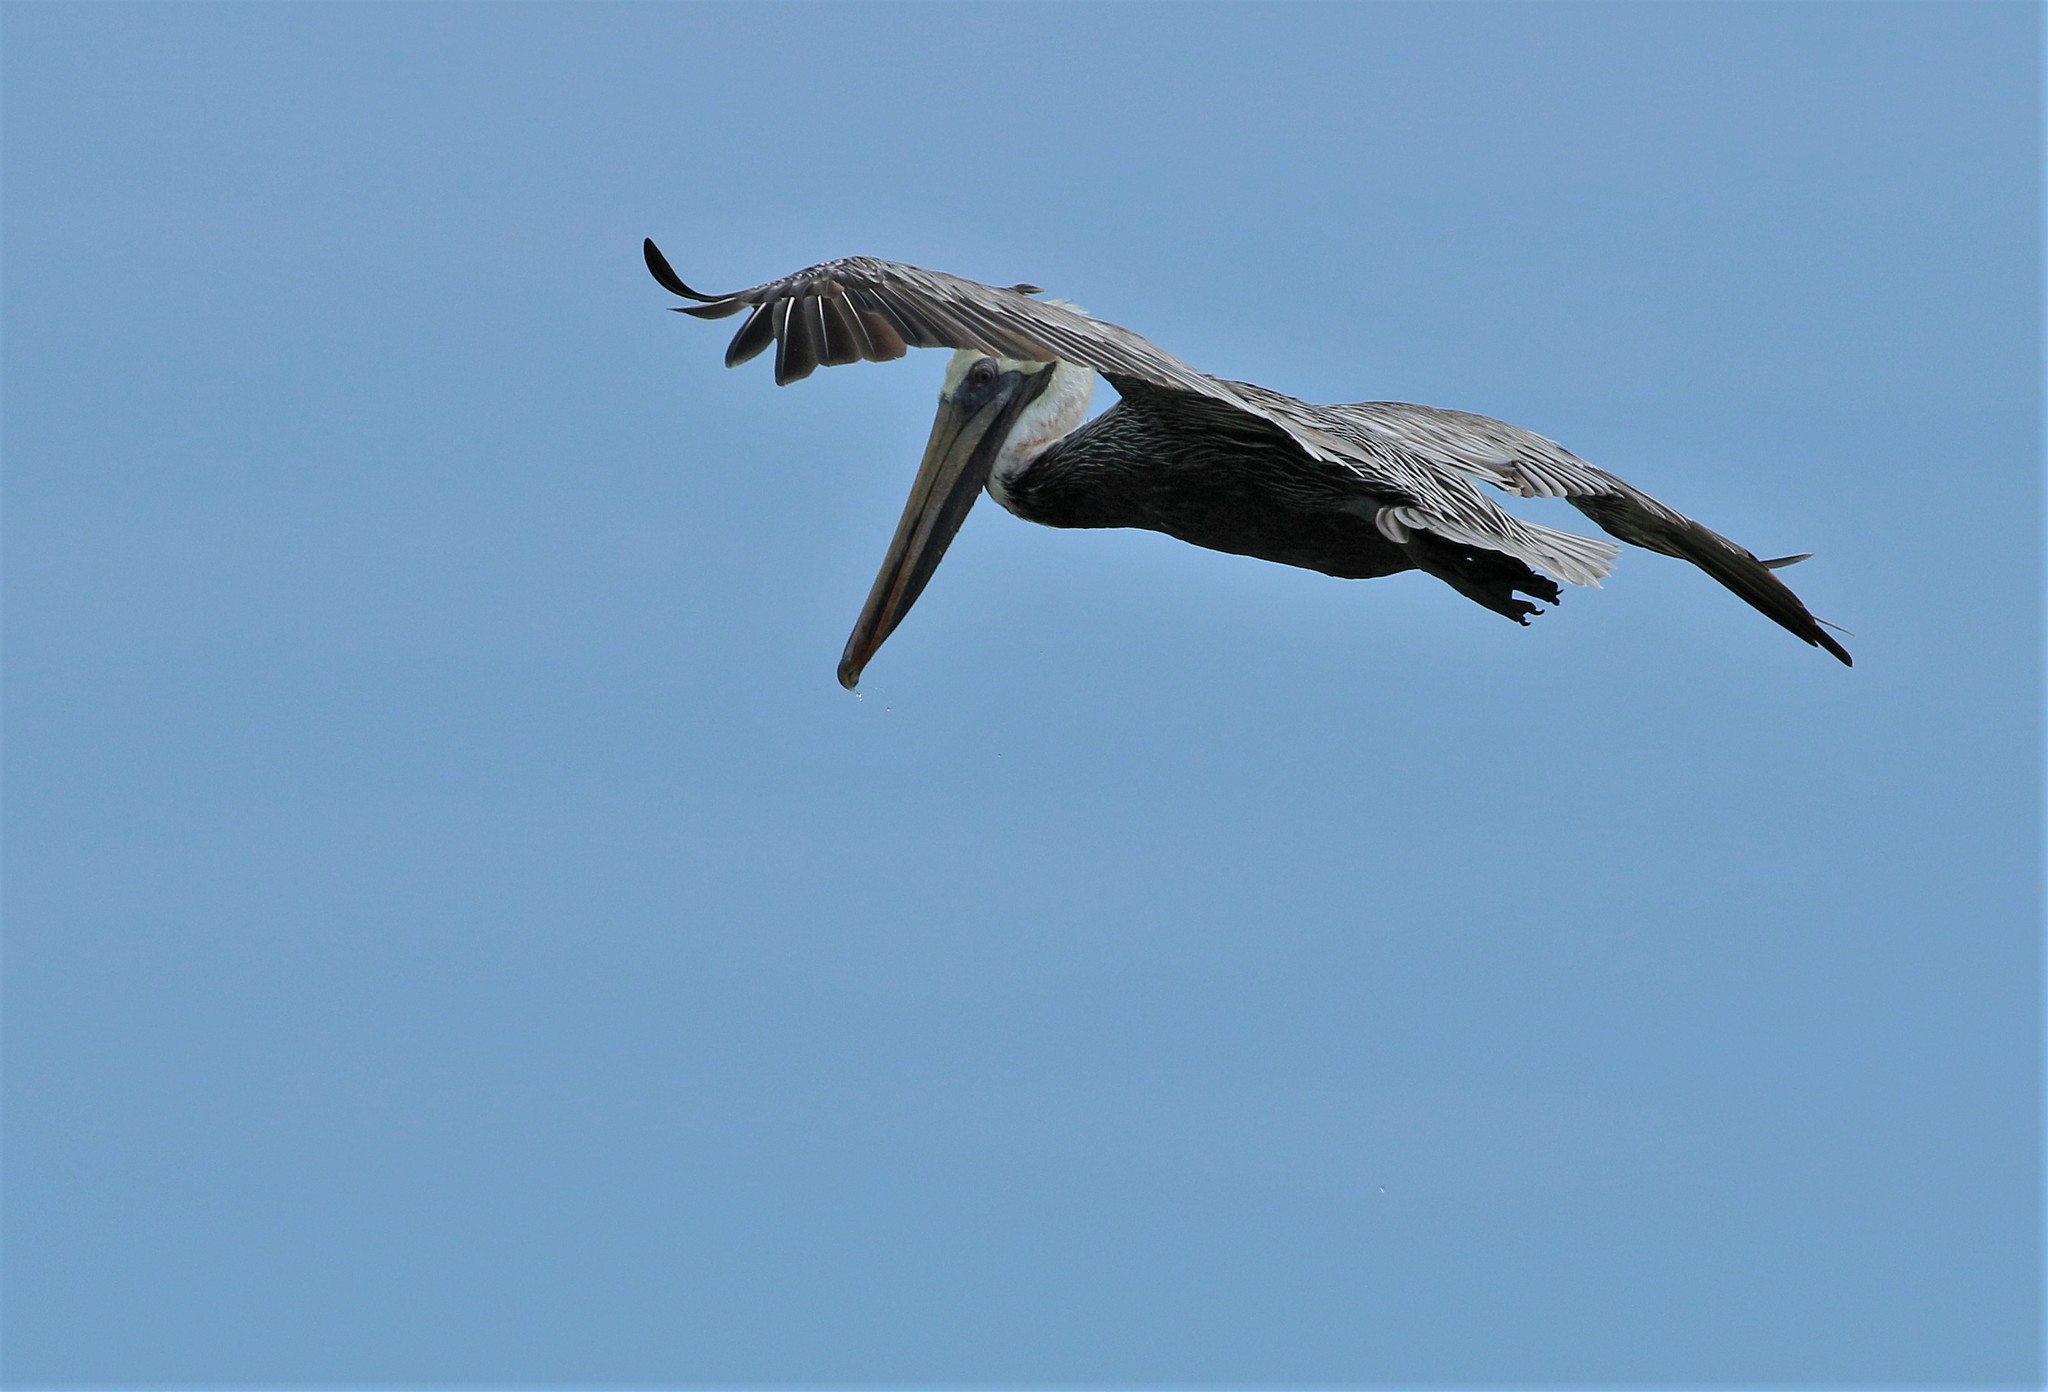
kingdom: Animalia
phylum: Chordata
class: Aves
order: Pelecaniformes
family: Pelecanidae
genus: Pelecanus
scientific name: Pelecanus occidentalis
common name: Brown pelican
